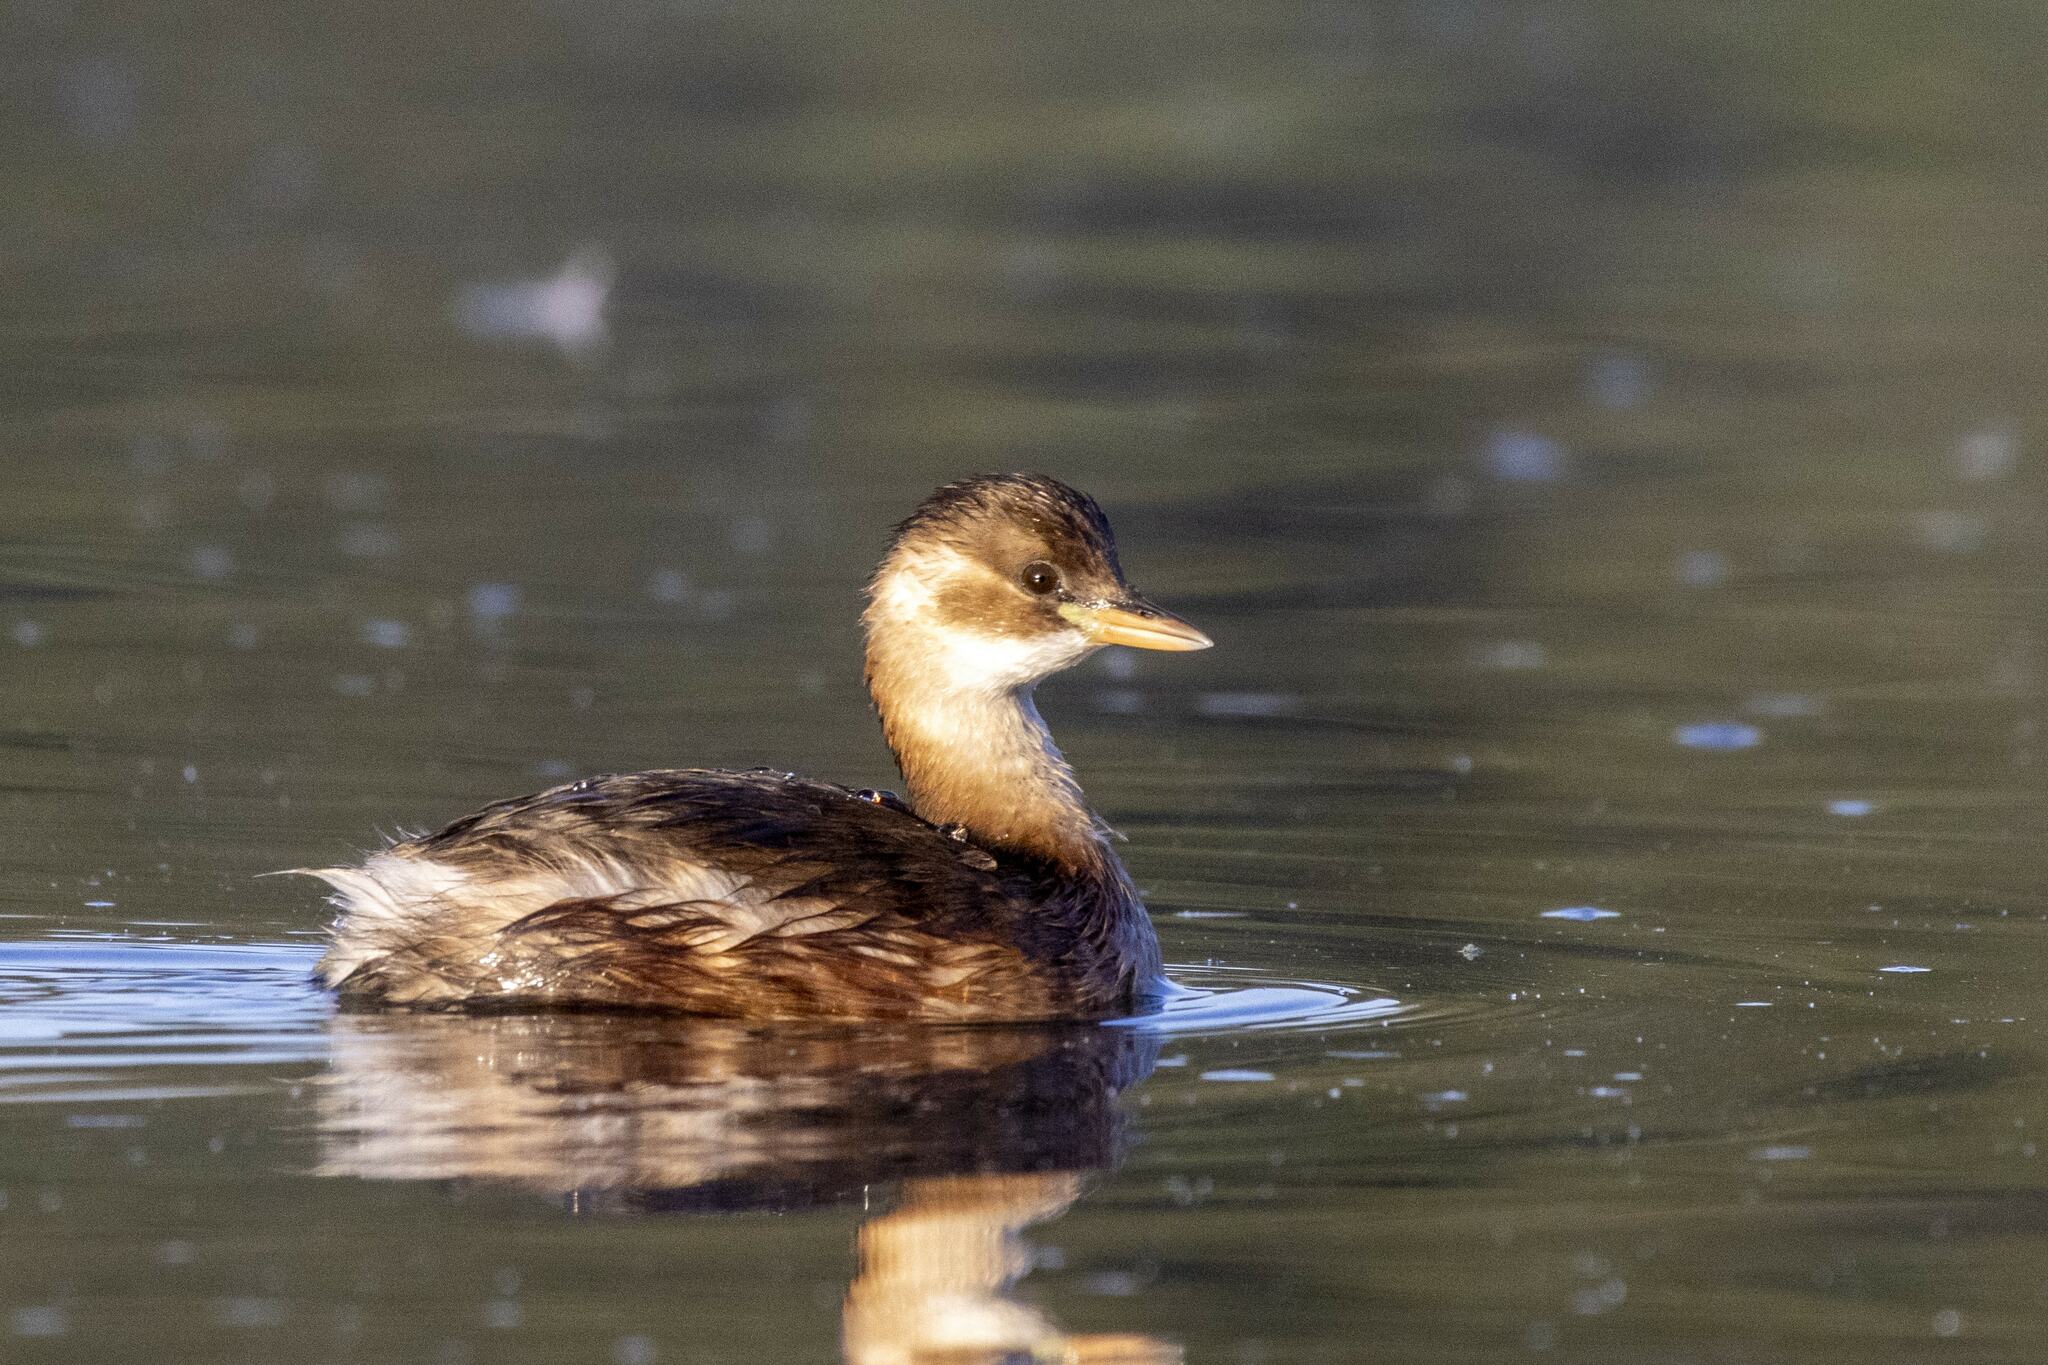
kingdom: Animalia
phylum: Chordata
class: Aves
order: Podicipediformes
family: Podicipedidae
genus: Tachybaptus
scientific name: Tachybaptus ruficollis
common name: Little grebe
